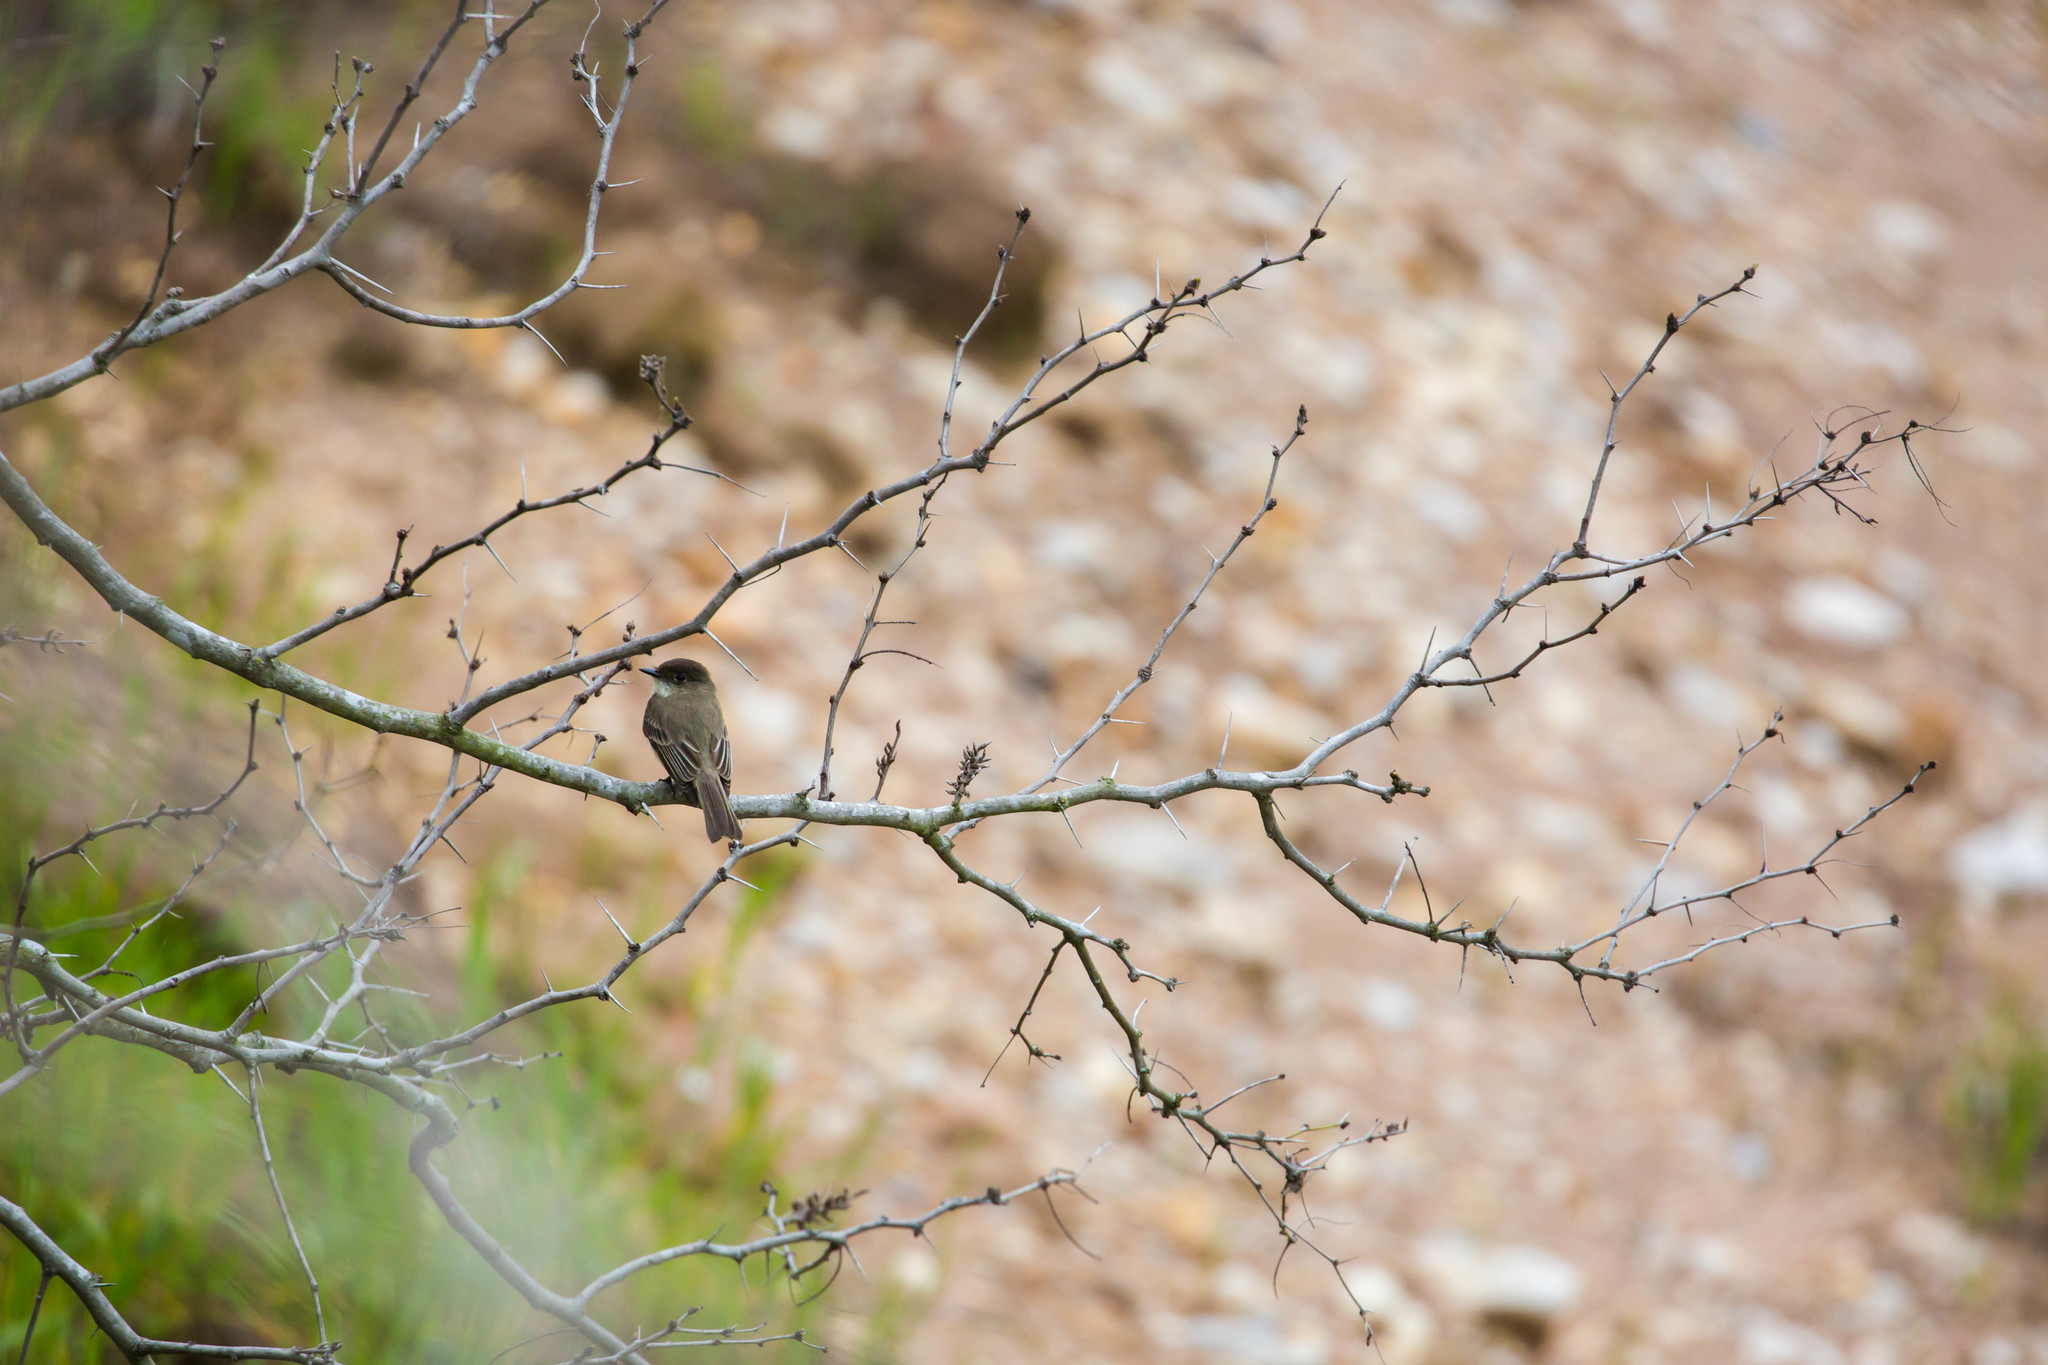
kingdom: Animalia
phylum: Chordata
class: Aves
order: Passeriformes
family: Tyrannidae
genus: Sayornis
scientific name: Sayornis phoebe
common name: Eastern phoebe
